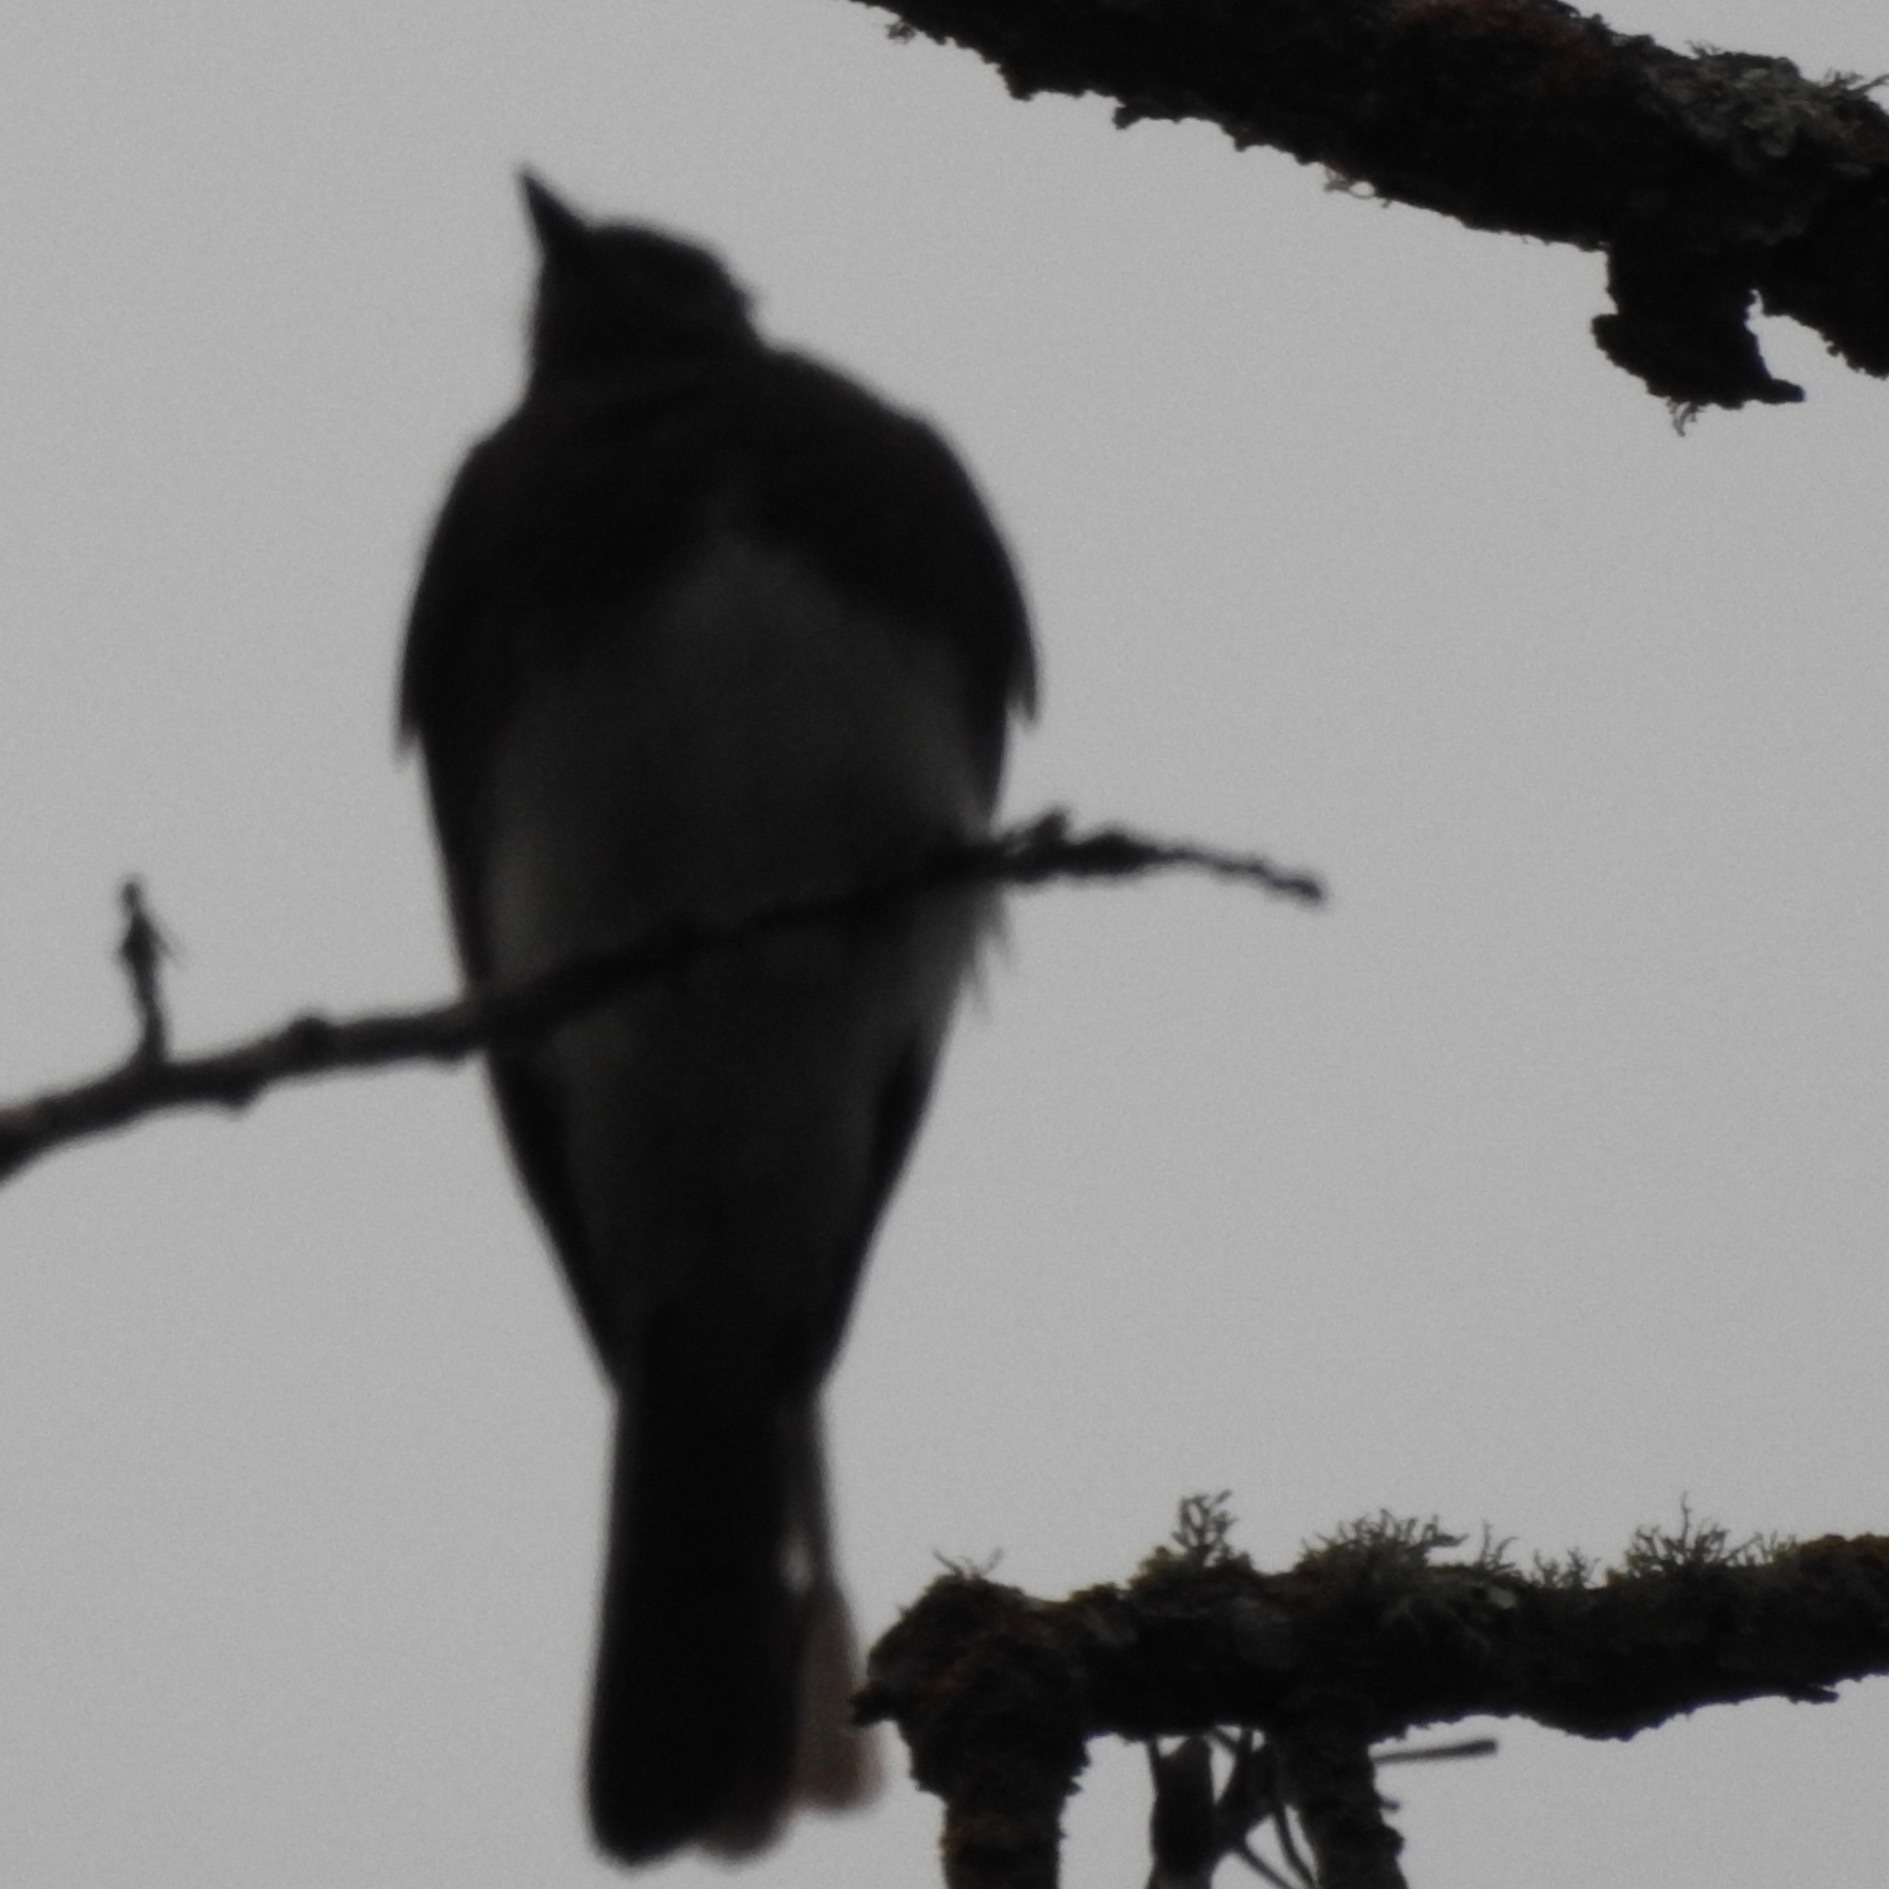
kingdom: Animalia
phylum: Chordata
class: Aves
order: Passeriformes
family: Tyrannidae
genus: Sayornis
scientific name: Sayornis nigricans
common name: Black phoebe
